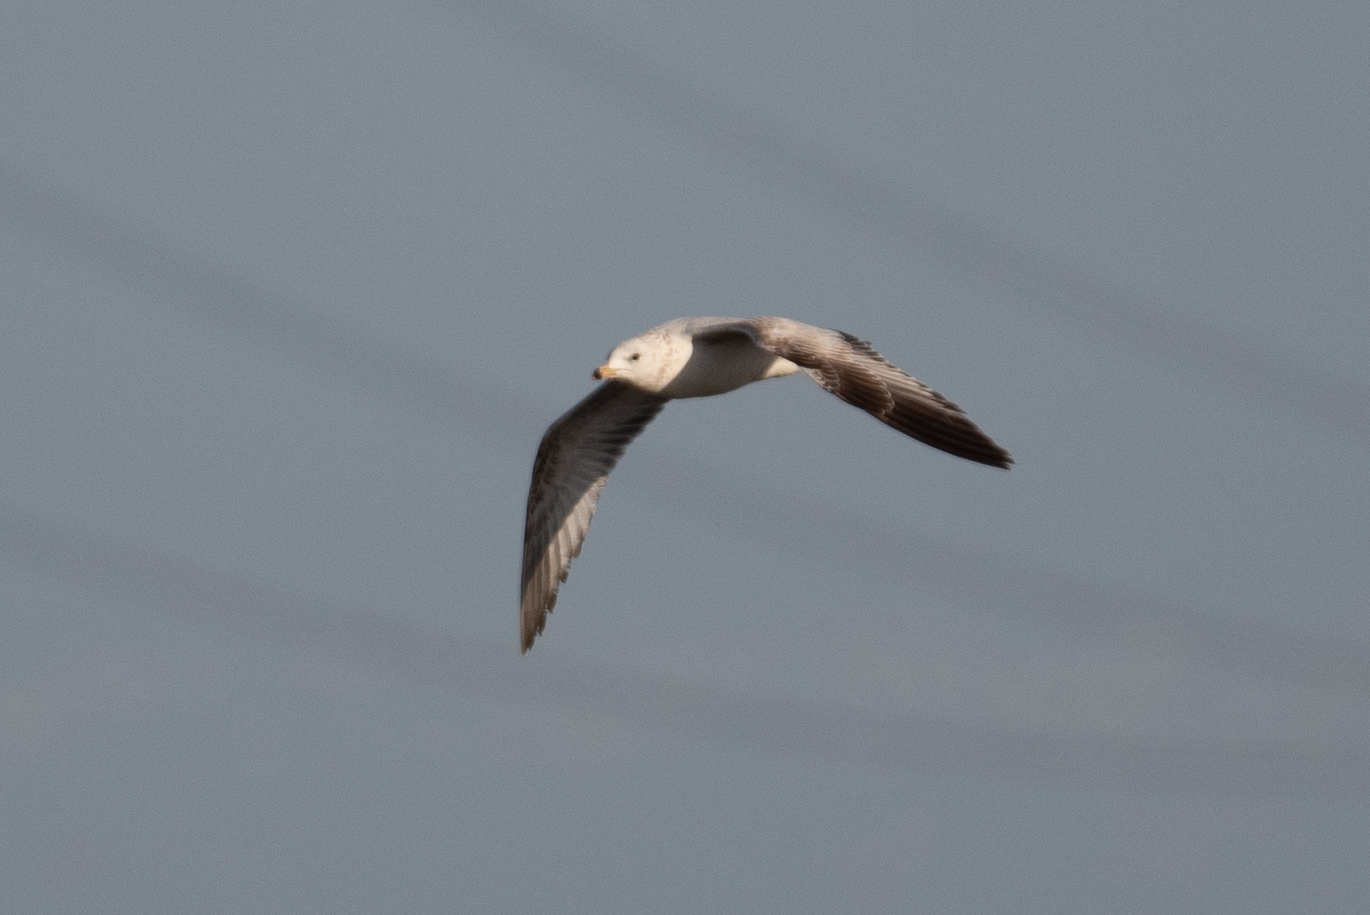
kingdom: Animalia
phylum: Chordata
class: Aves
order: Charadriiformes
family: Laridae
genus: Larus
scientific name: Larus delawarensis
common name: Ring-billed gull
